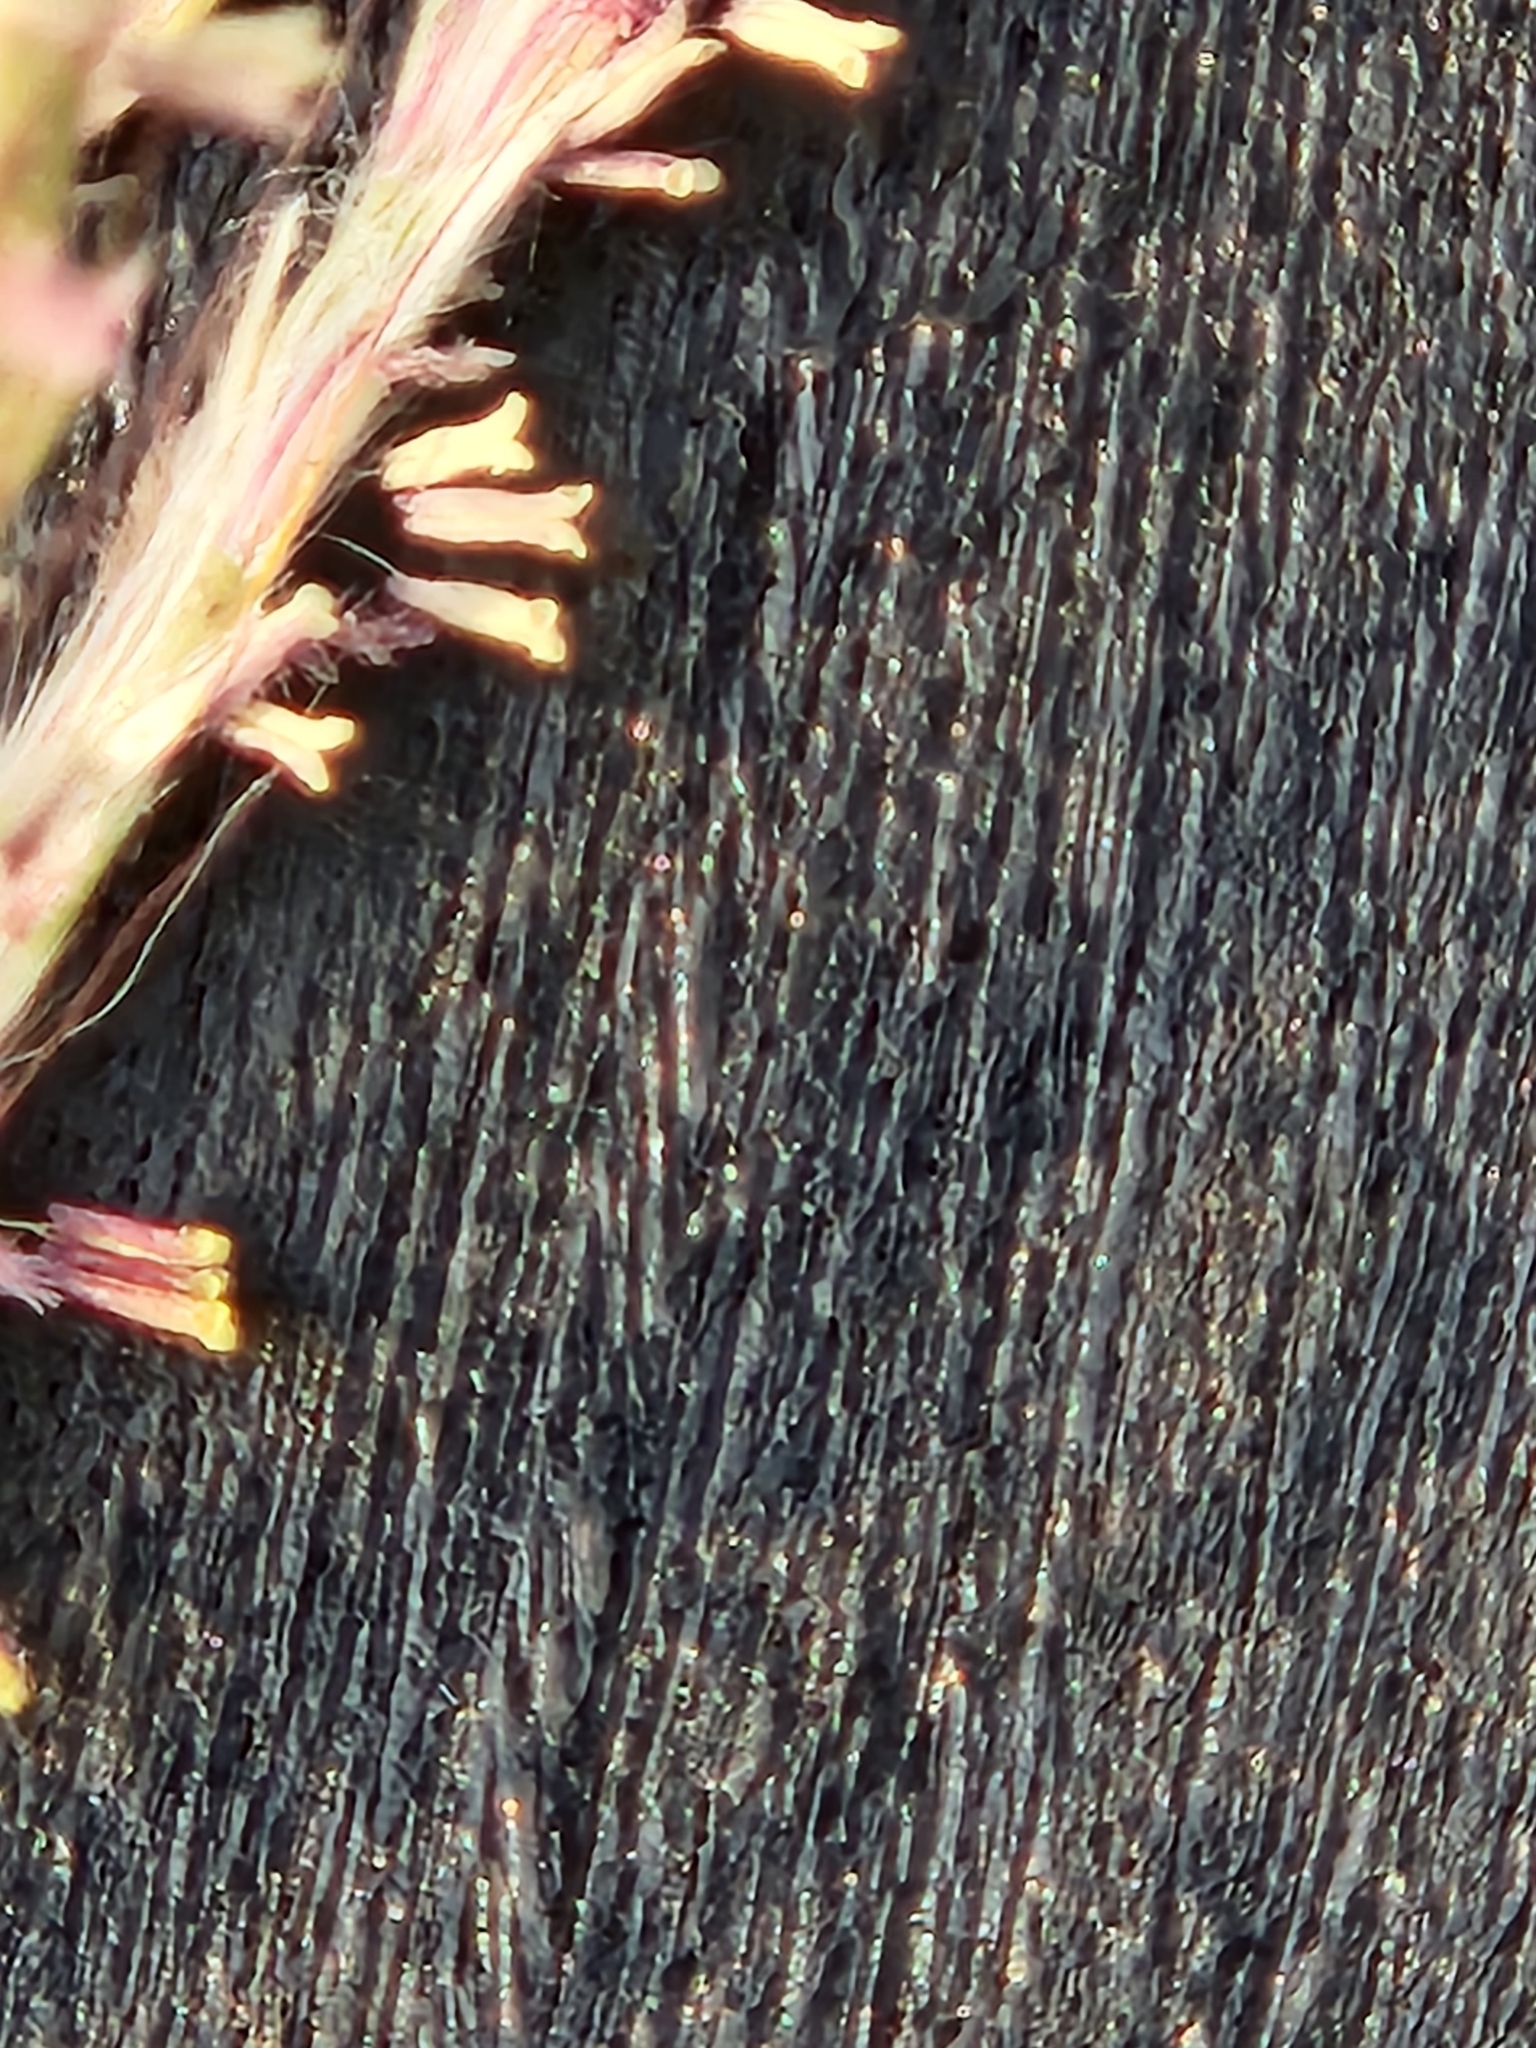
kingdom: Plantae
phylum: Tracheophyta
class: Liliopsida
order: Poales
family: Poaceae
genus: Bothriochloa
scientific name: Bothriochloa ischaemum
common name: Yellow bluestem
